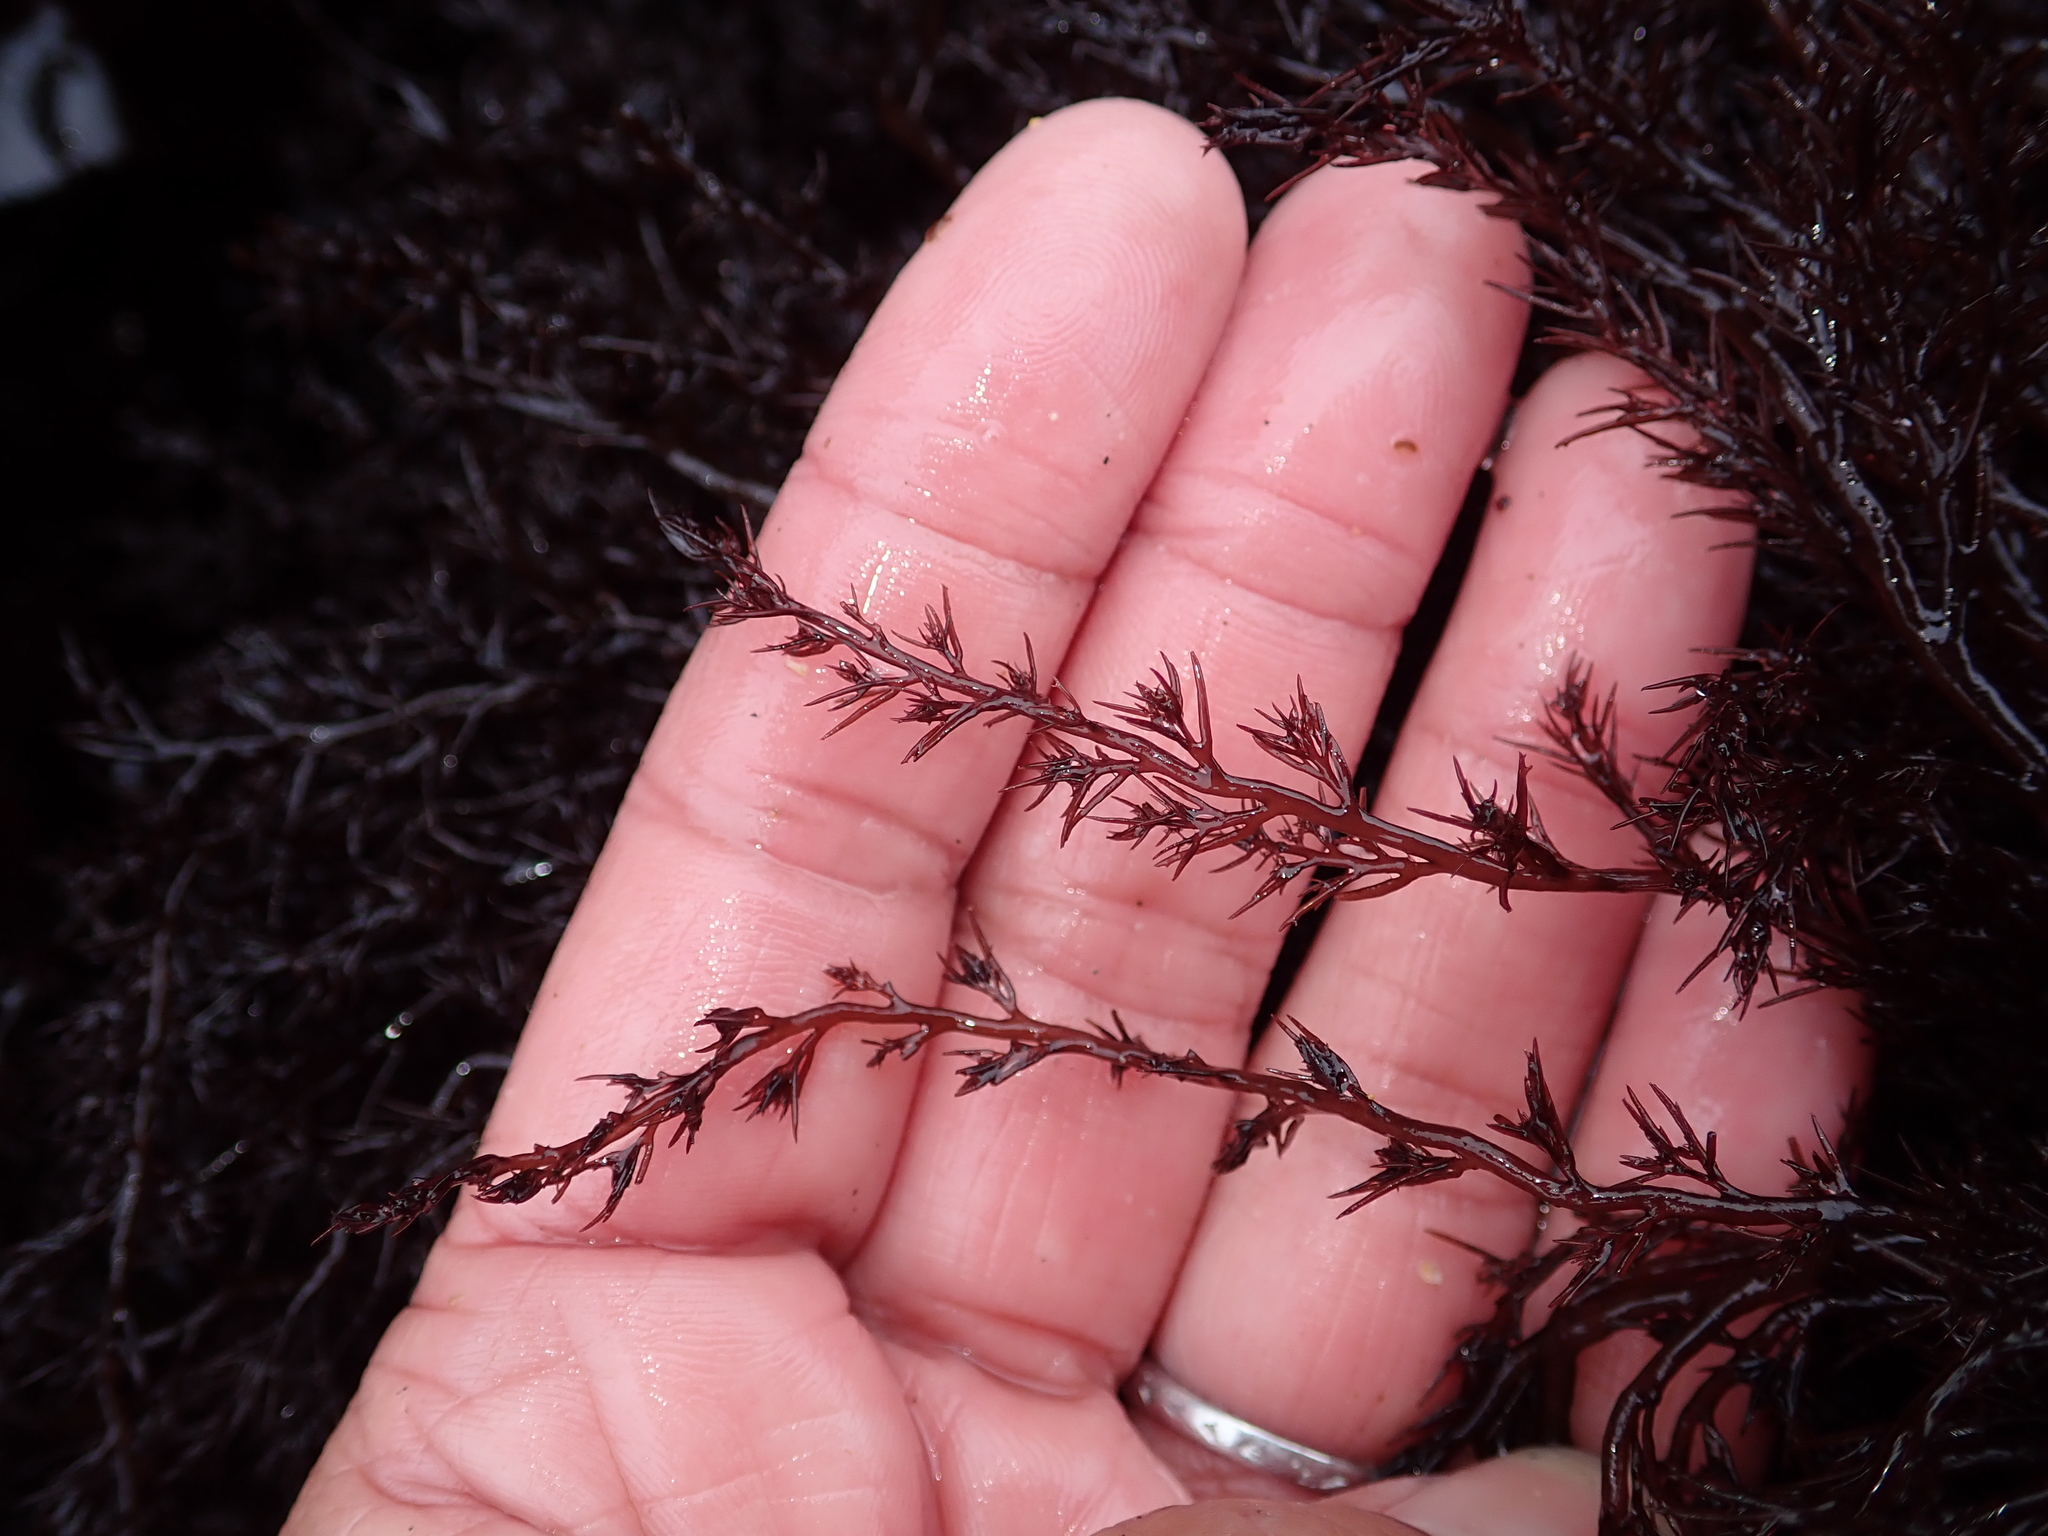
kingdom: Plantae
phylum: Rhodophyta
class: Florideophyceae
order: Ceramiales
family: Rhodomelaceae
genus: Odonthalia
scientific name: Odonthalia floccosa
